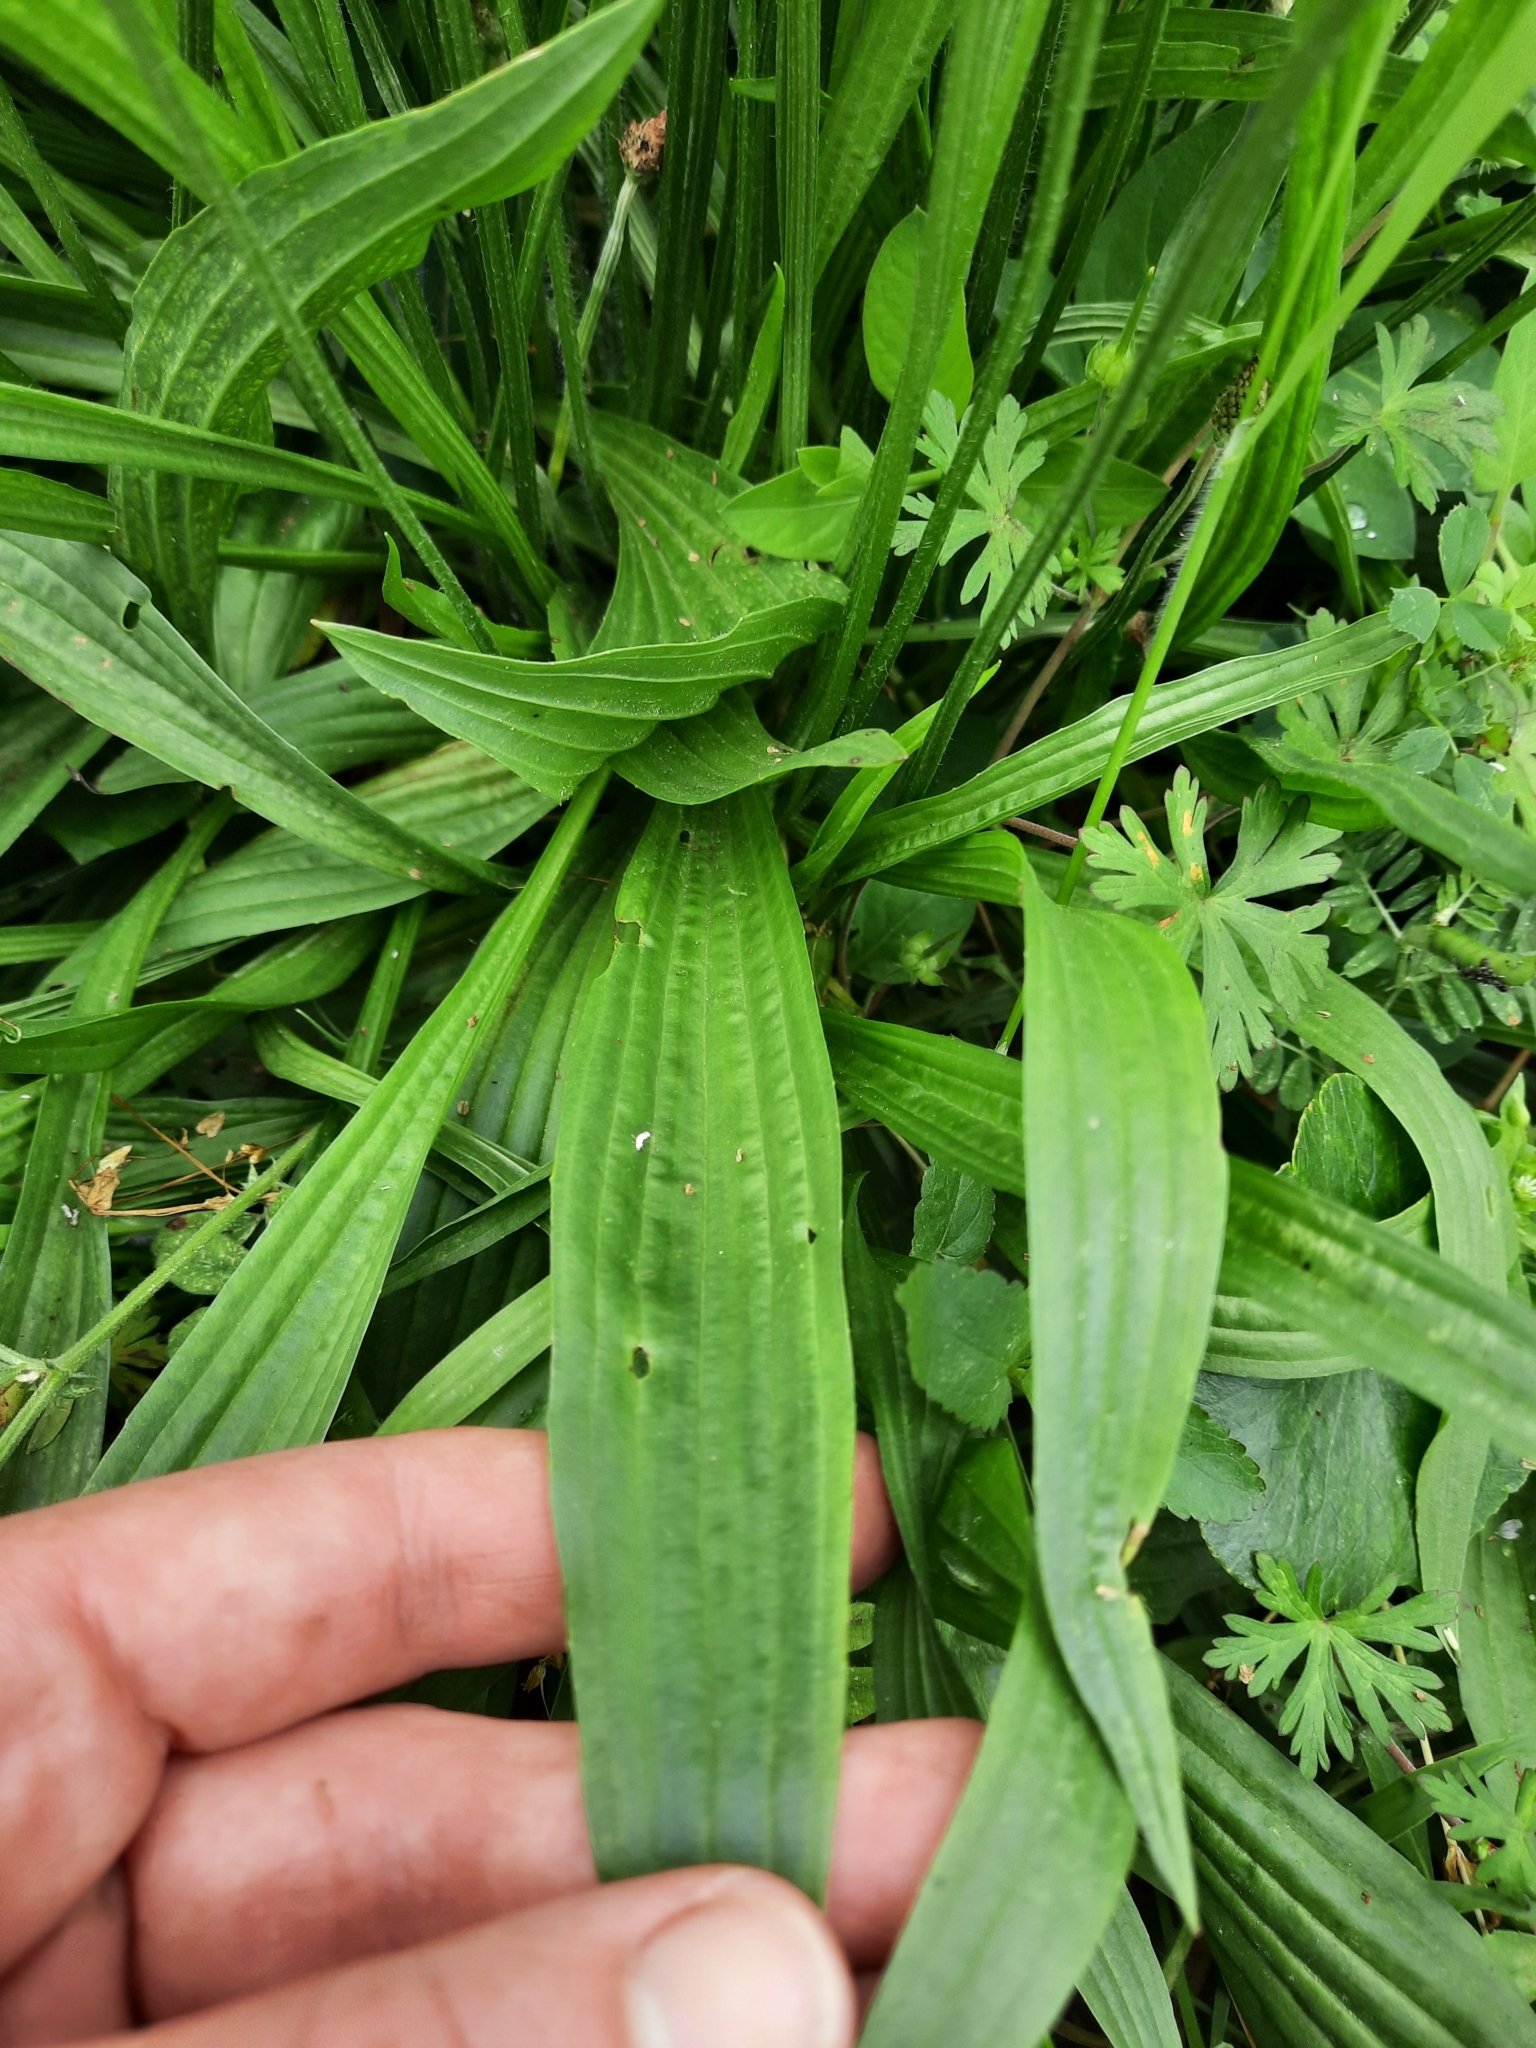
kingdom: Plantae
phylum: Tracheophyta
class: Magnoliopsida
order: Lamiales
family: Plantaginaceae
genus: Plantago
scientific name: Plantago lanceolata
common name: Ribwort plantain
